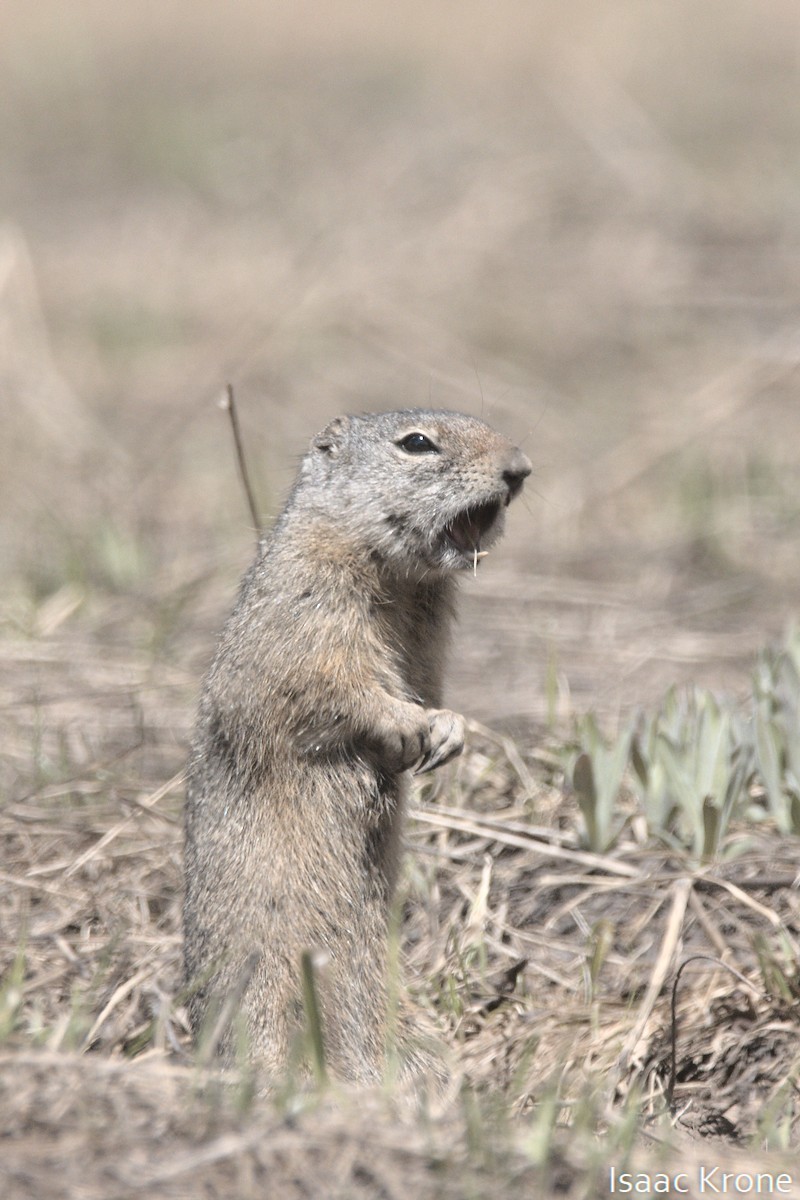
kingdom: Animalia
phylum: Chordata
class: Mammalia
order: Rodentia
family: Sciuridae
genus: Urocitellus
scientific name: Urocitellus armatus
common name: Uinta ground squirrel
